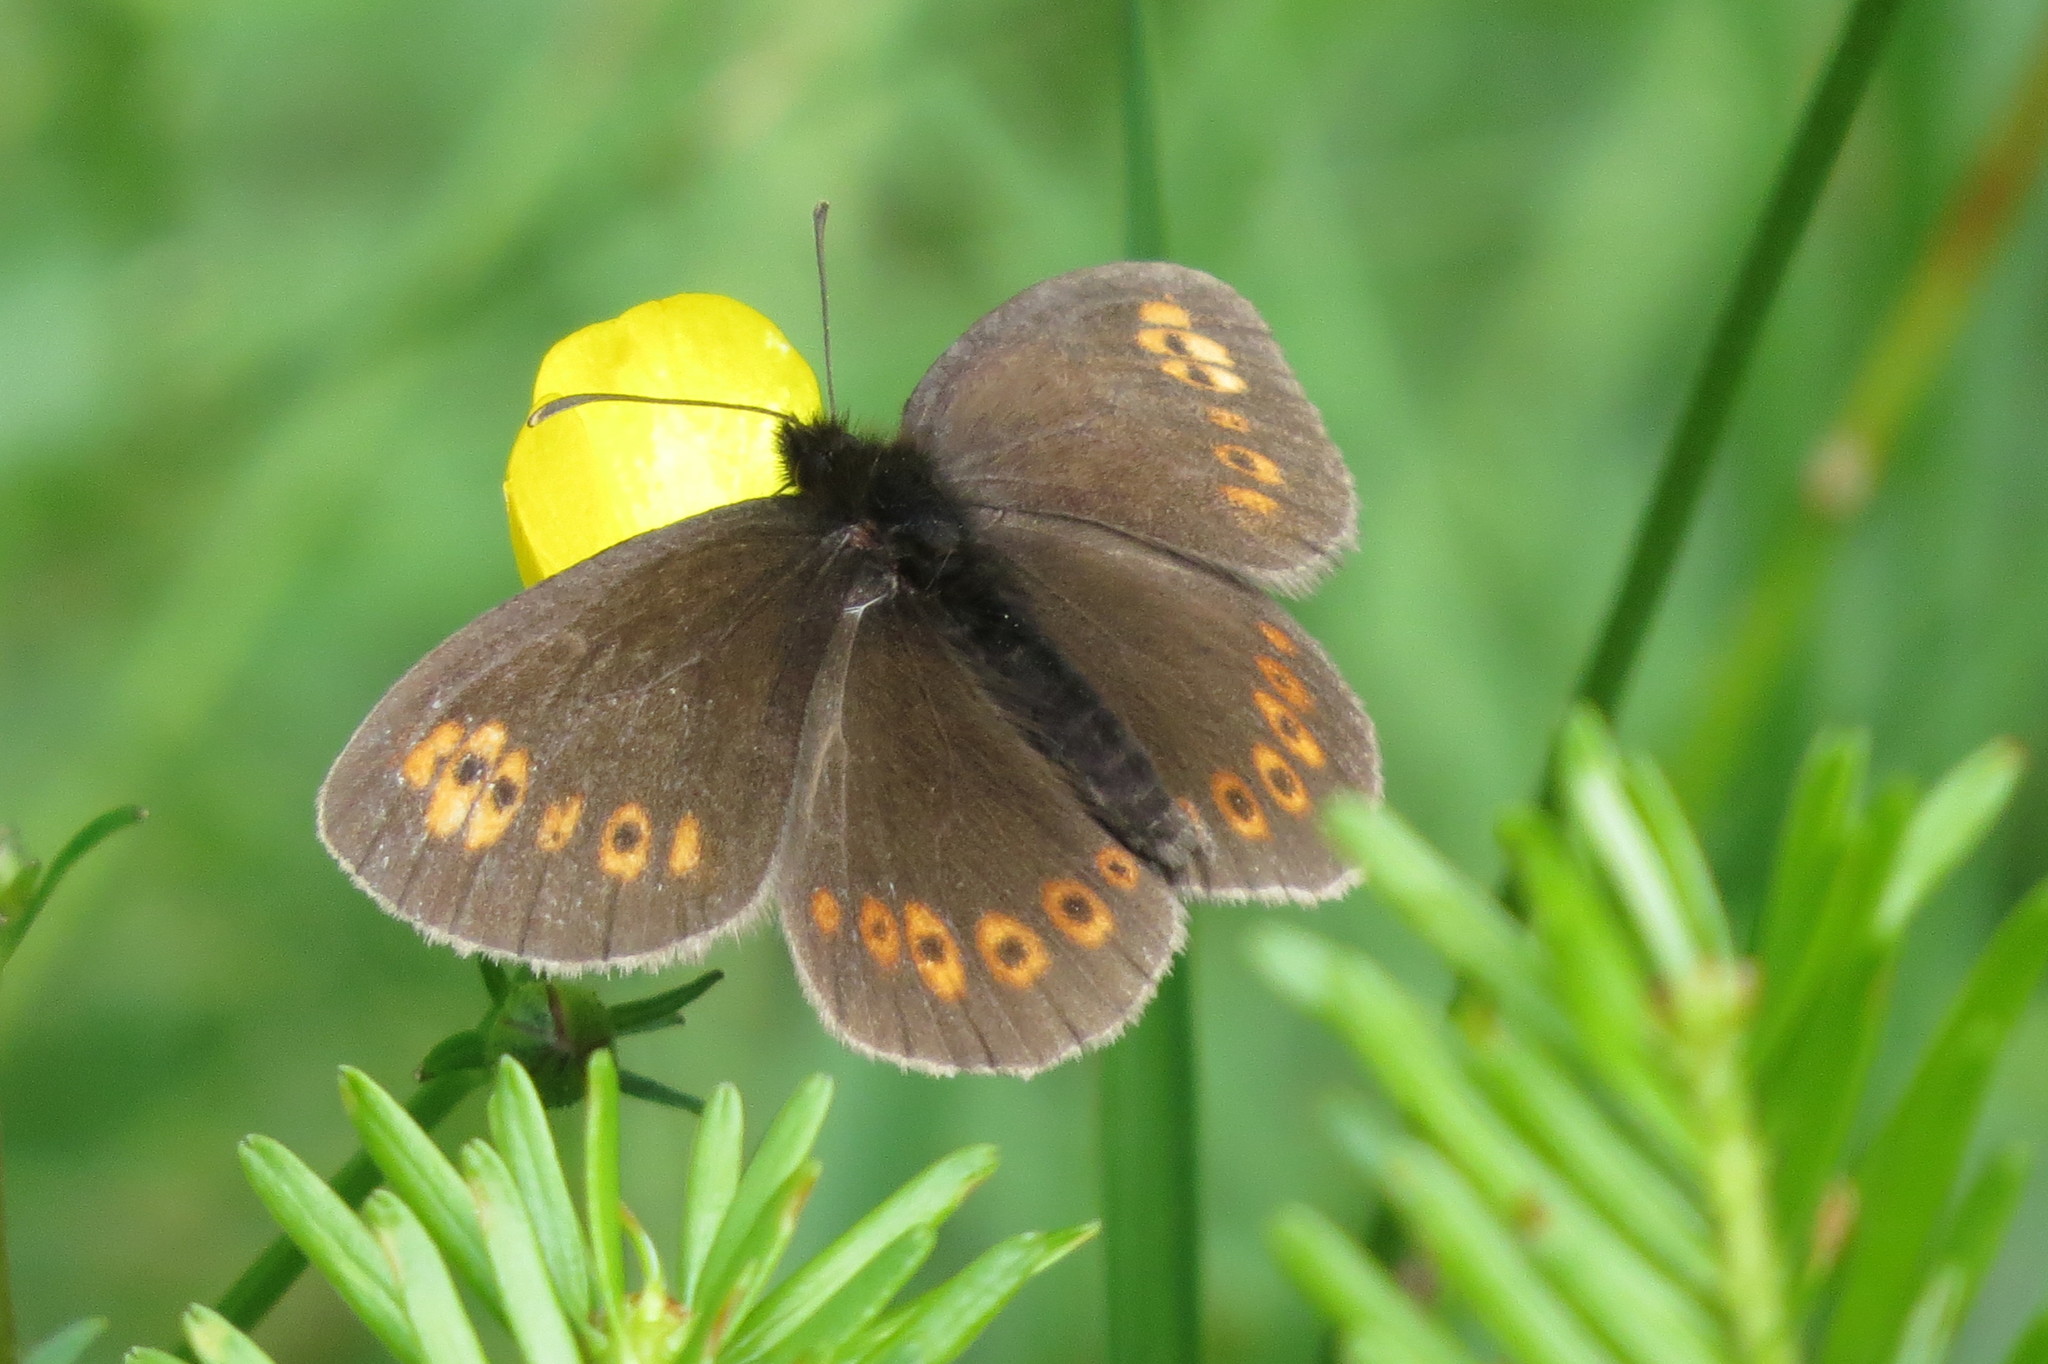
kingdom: Animalia
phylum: Arthropoda
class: Insecta
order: Lepidoptera
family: Nymphalidae
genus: Erebia
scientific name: Erebia alberganus
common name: Almond-eyed ringlet
